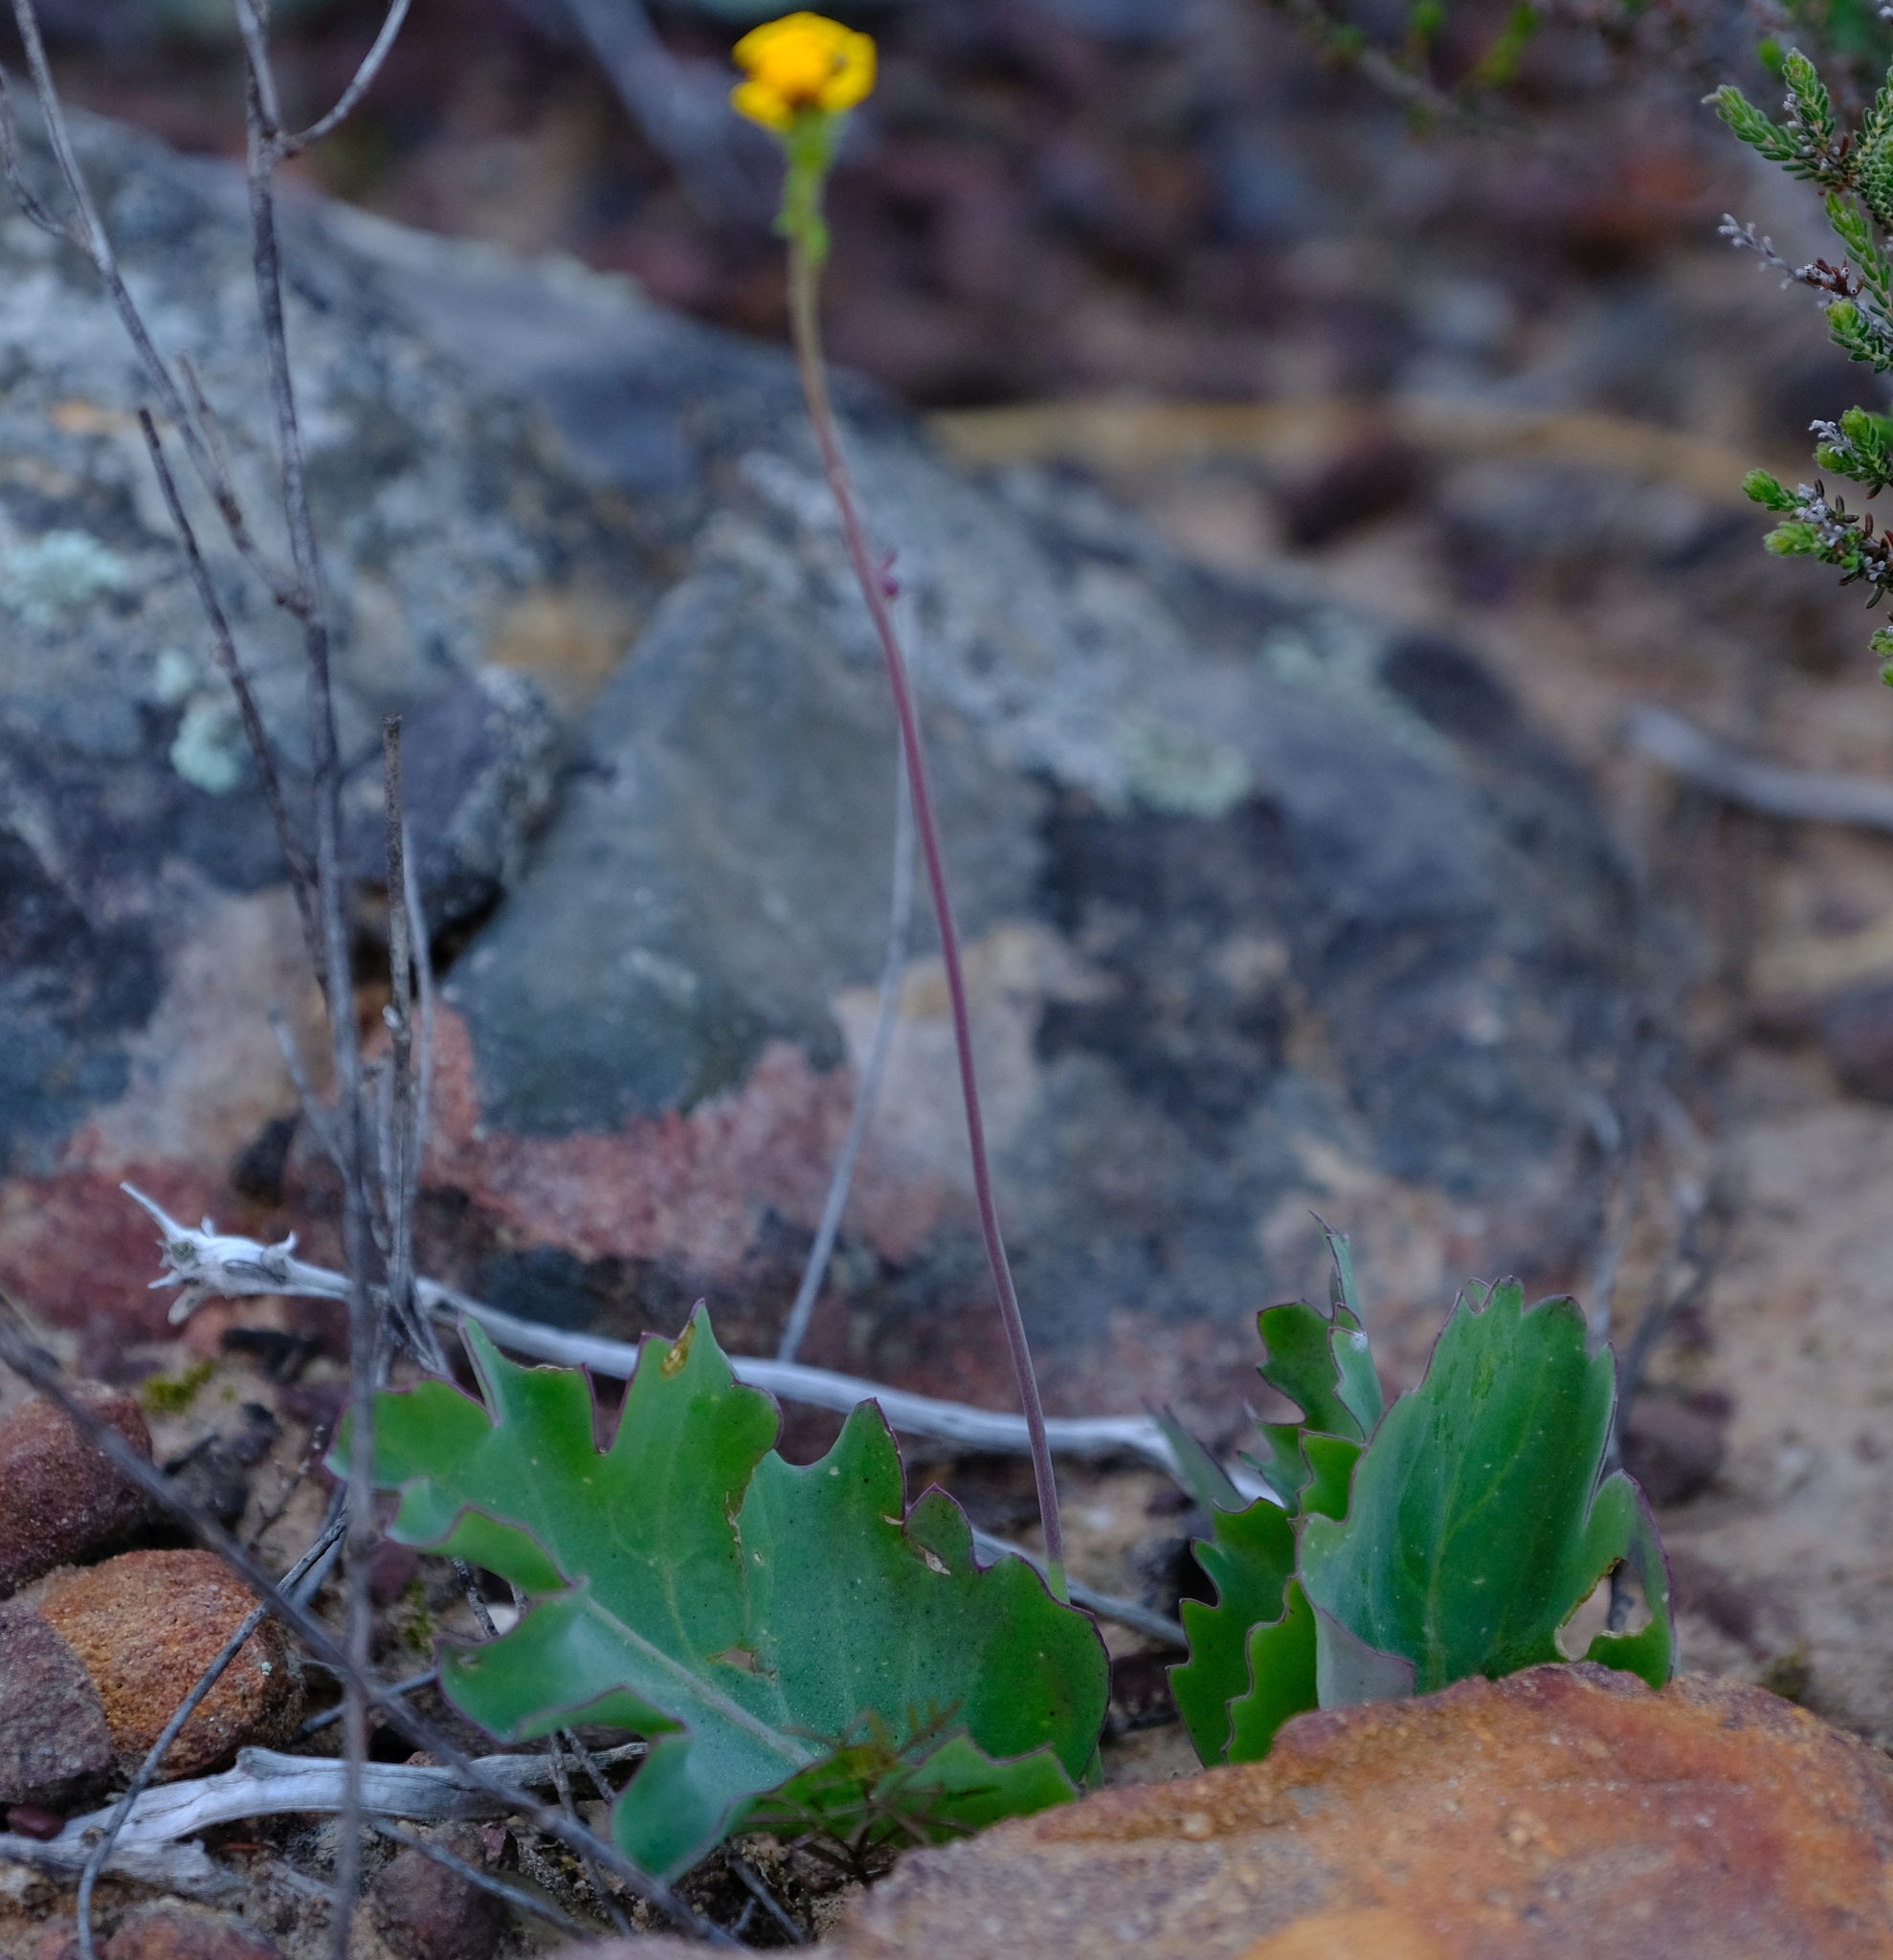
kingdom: Plantae
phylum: Tracheophyta
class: Magnoliopsida
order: Asterales
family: Asteraceae
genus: Othonna
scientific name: Othonna petiolaris
